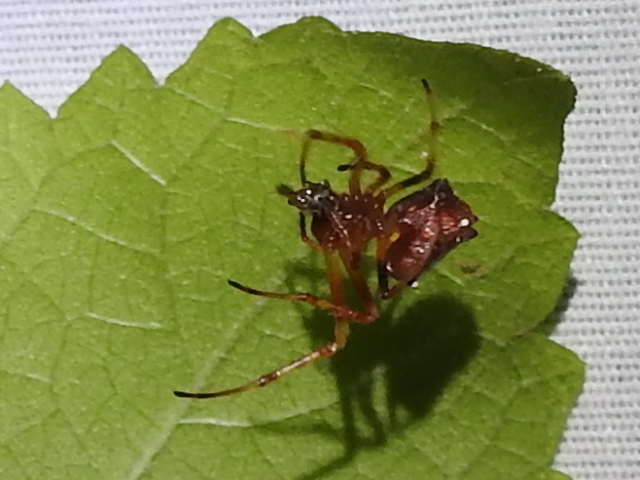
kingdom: Animalia
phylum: Arthropoda
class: Arachnida
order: Araneae
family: Araneidae
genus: Verrucosa
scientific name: Verrucosa arenata
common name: Orb weavers
